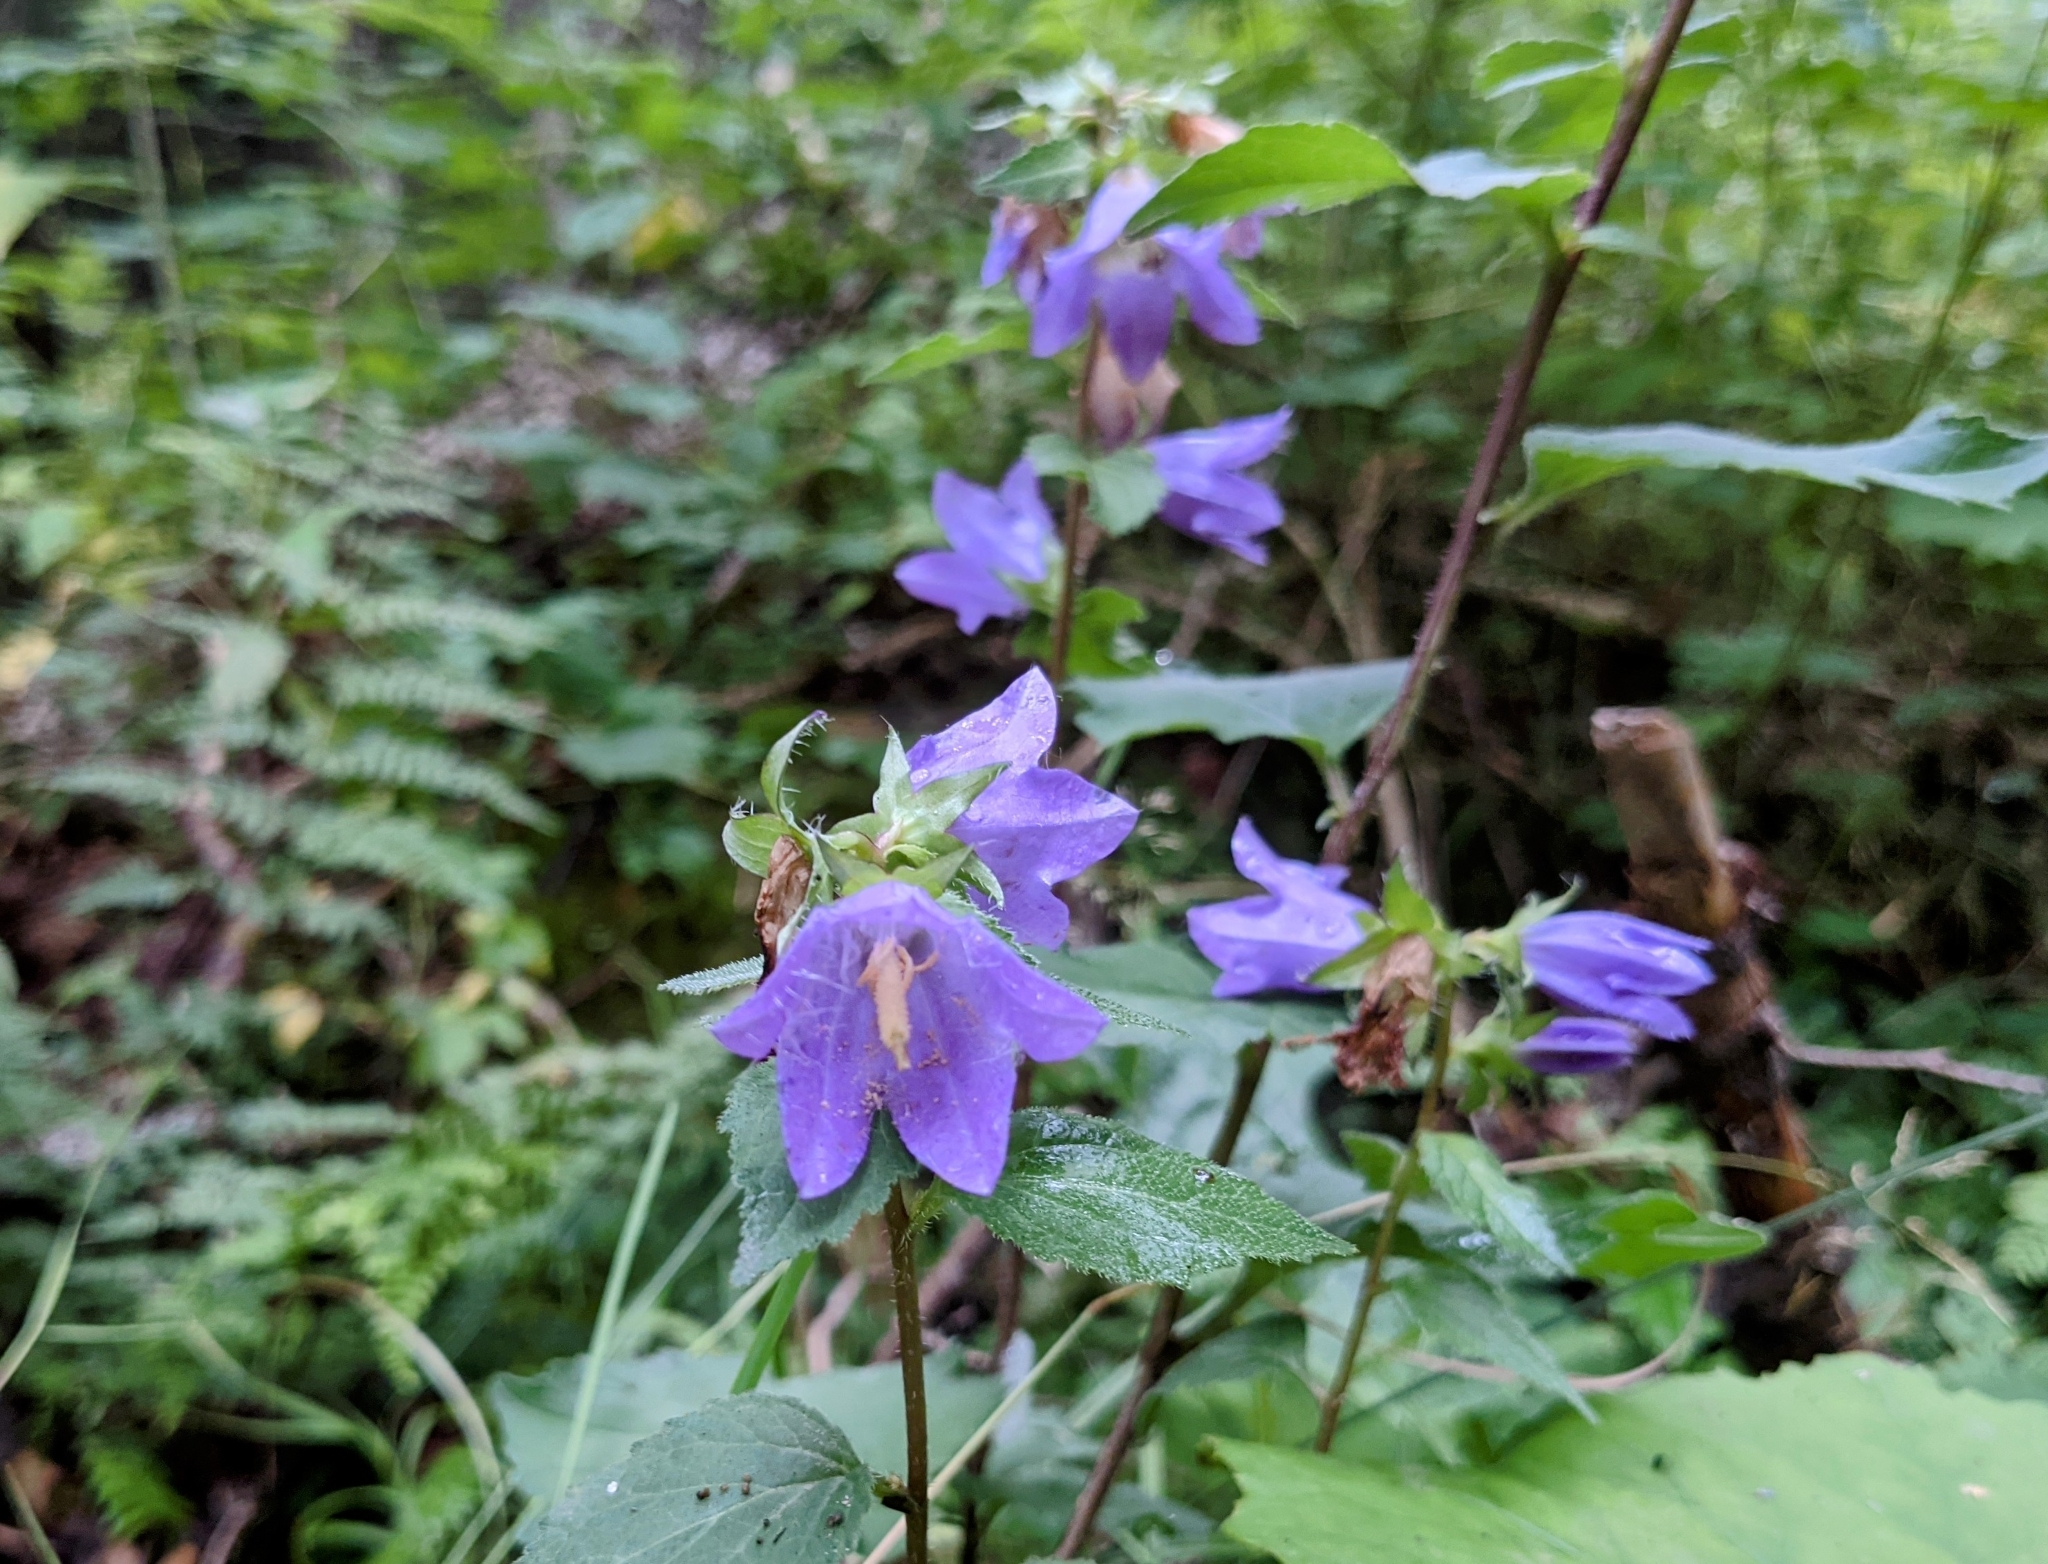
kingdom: Plantae
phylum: Tracheophyta
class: Magnoliopsida
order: Asterales
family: Campanulaceae
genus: Campanula
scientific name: Campanula trachelium
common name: Nettle-leaved bellflower
